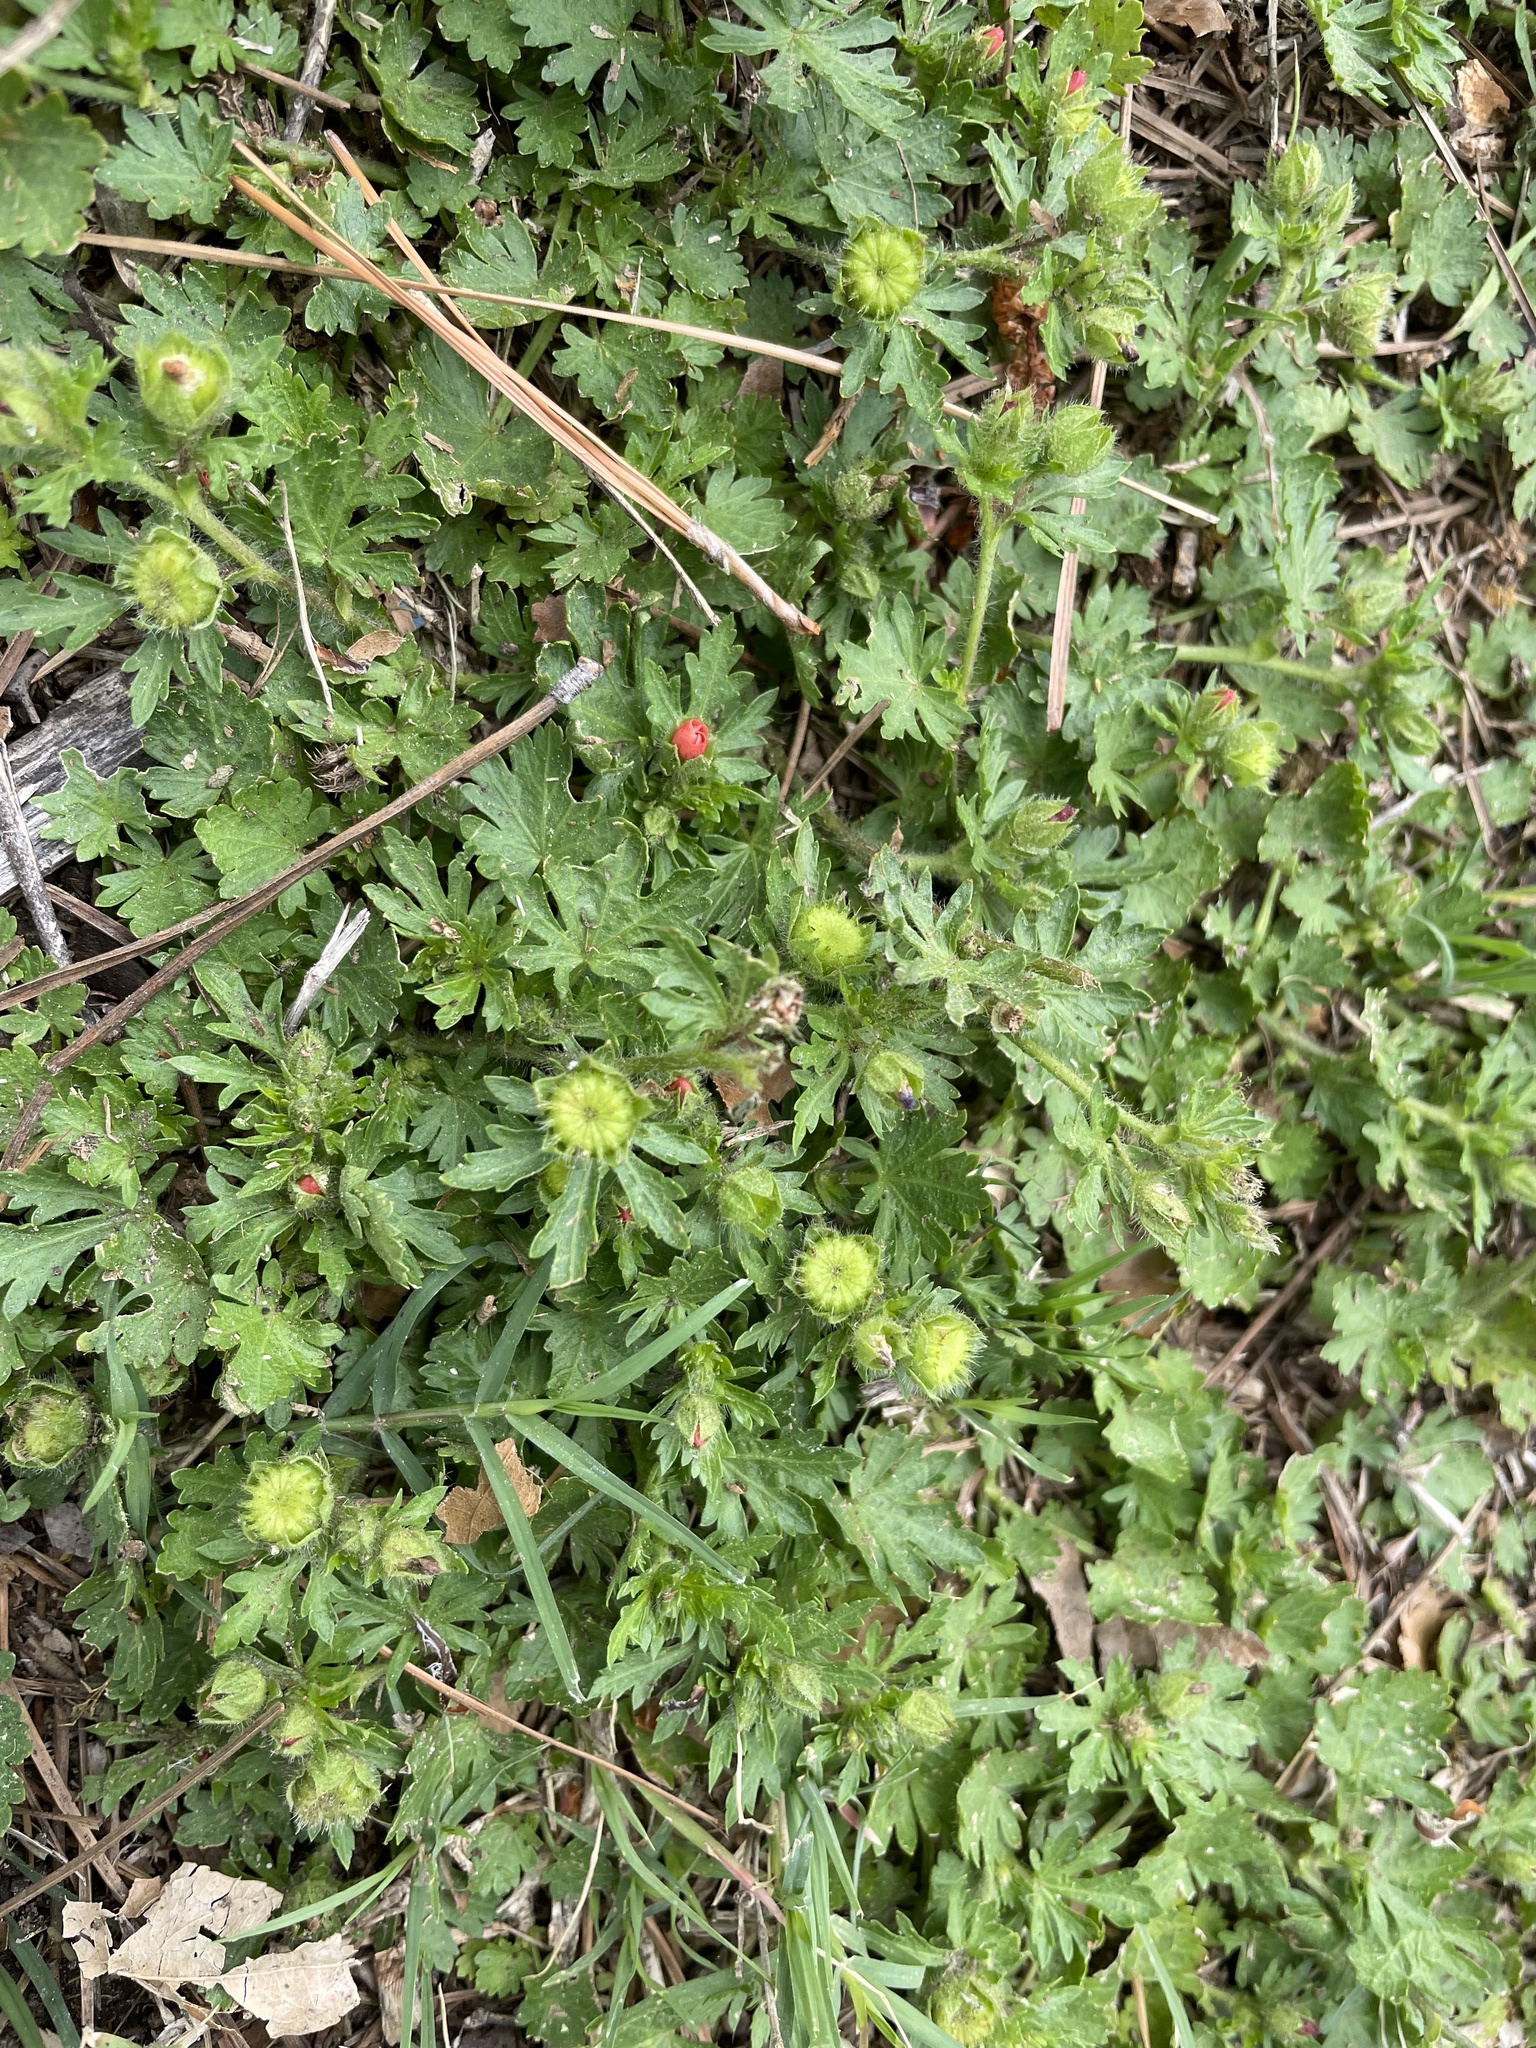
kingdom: Plantae
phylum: Tracheophyta
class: Magnoliopsida
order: Malvales
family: Malvaceae
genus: Modiola
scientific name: Modiola caroliniana
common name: Carolina bristlemallow
